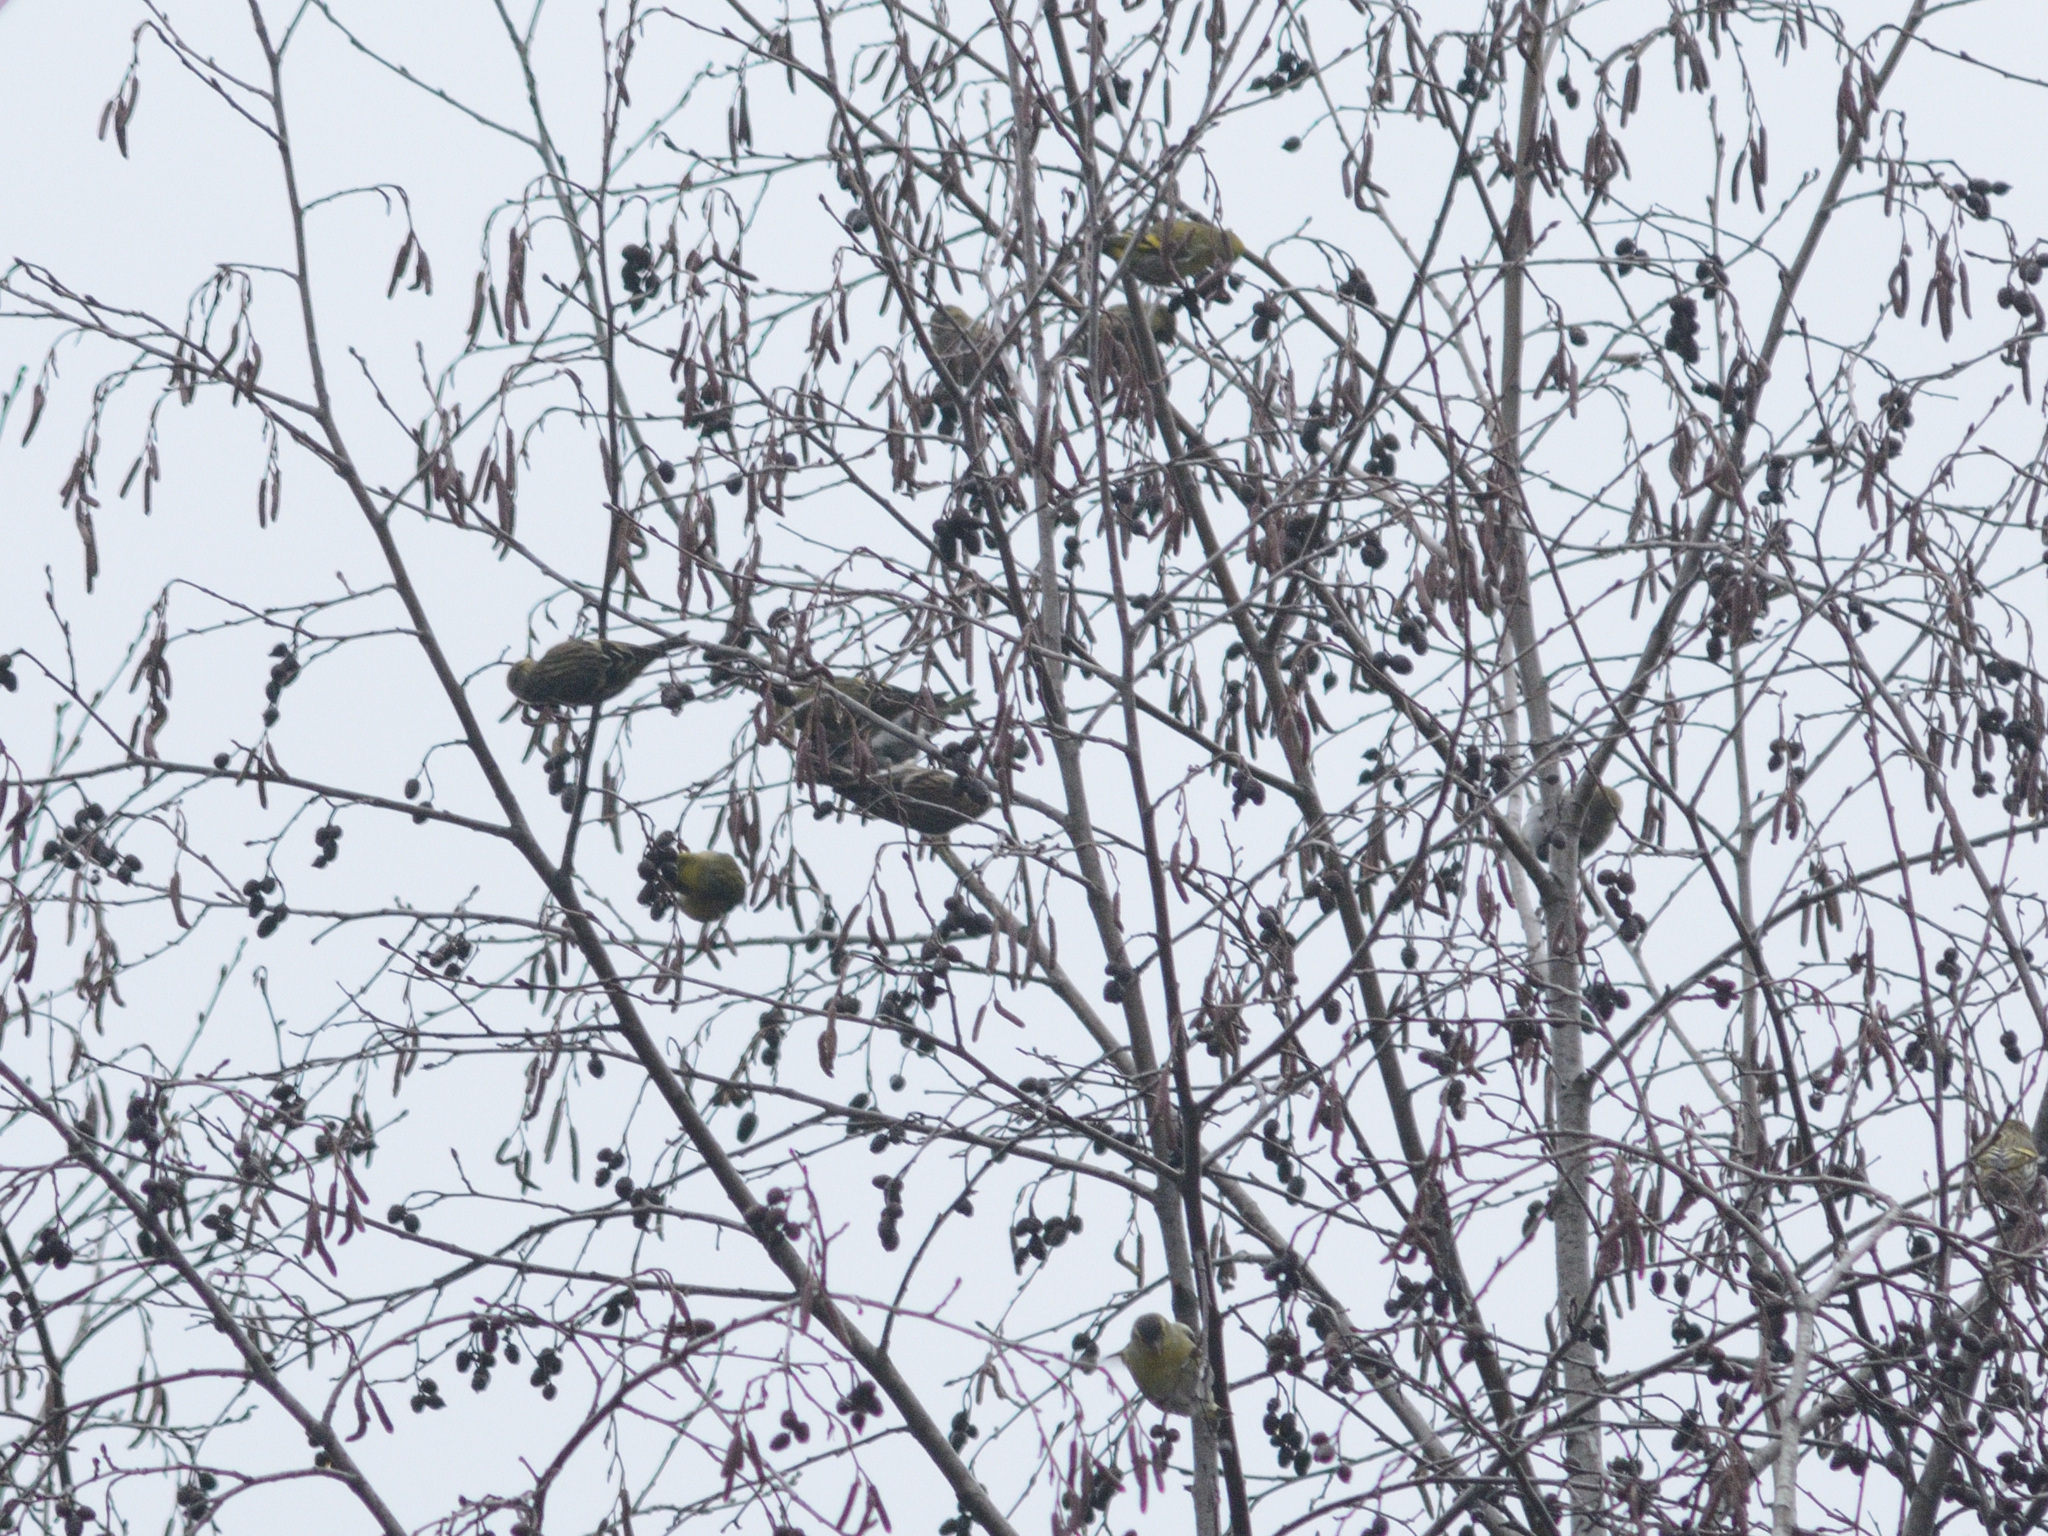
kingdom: Animalia
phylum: Chordata
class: Aves
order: Passeriformes
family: Fringillidae
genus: Spinus
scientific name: Spinus spinus
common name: Eurasian siskin
